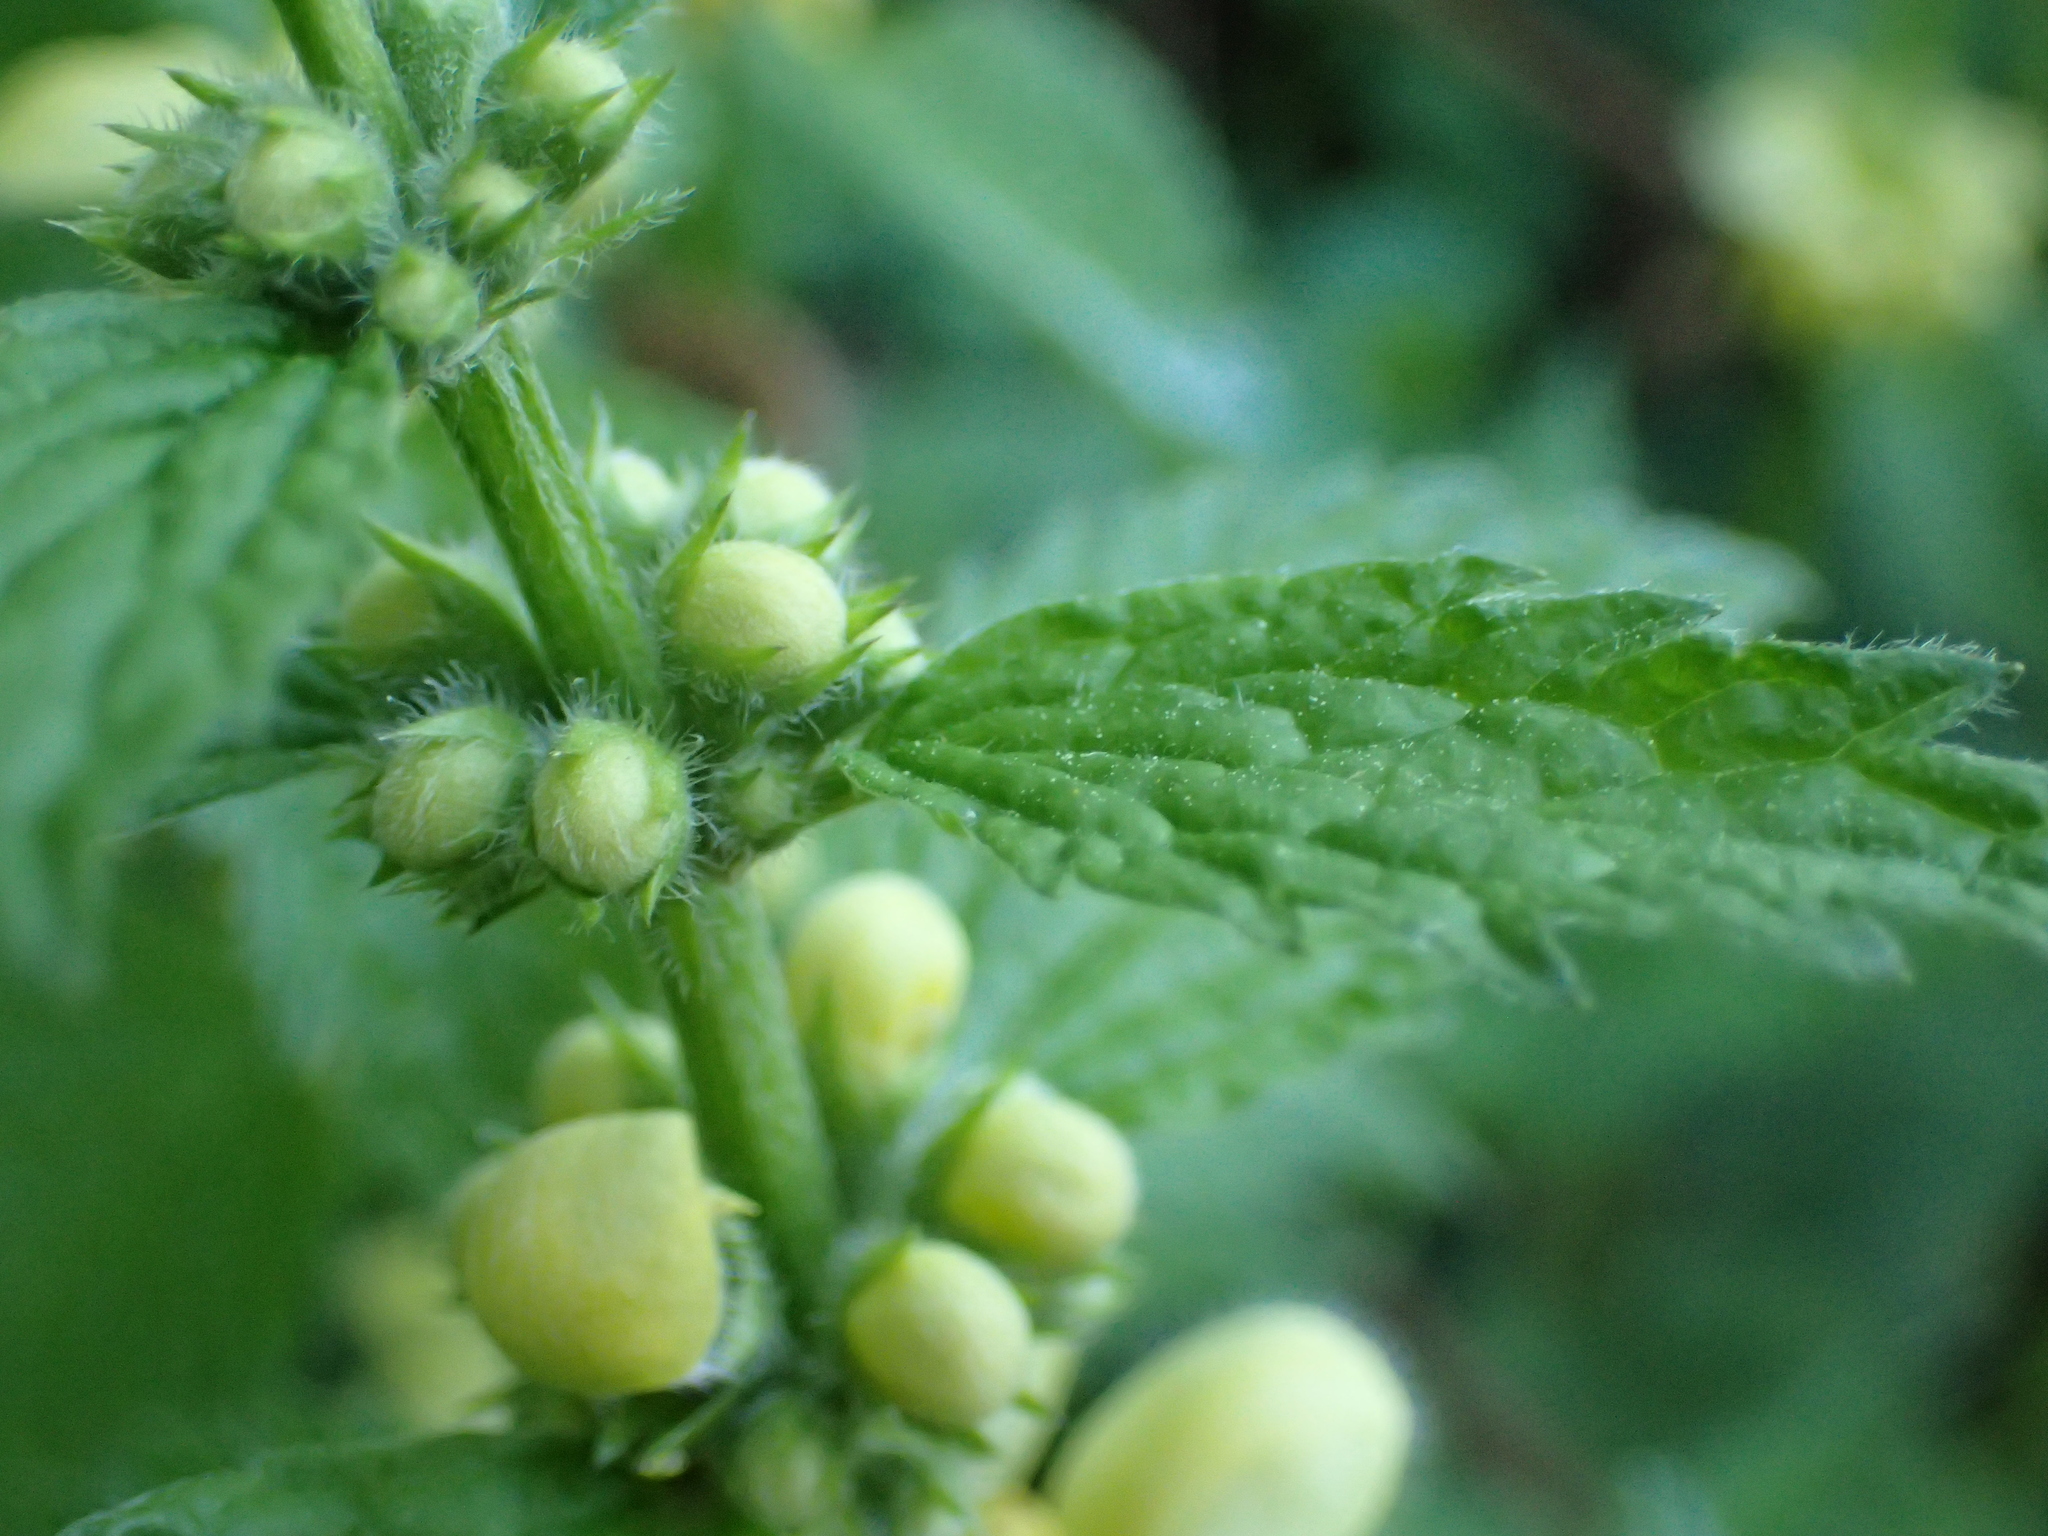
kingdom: Plantae
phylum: Tracheophyta
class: Magnoliopsida
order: Lamiales
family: Lamiaceae
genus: Lamium
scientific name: Lamium galeobdolon
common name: Yellow archangel
